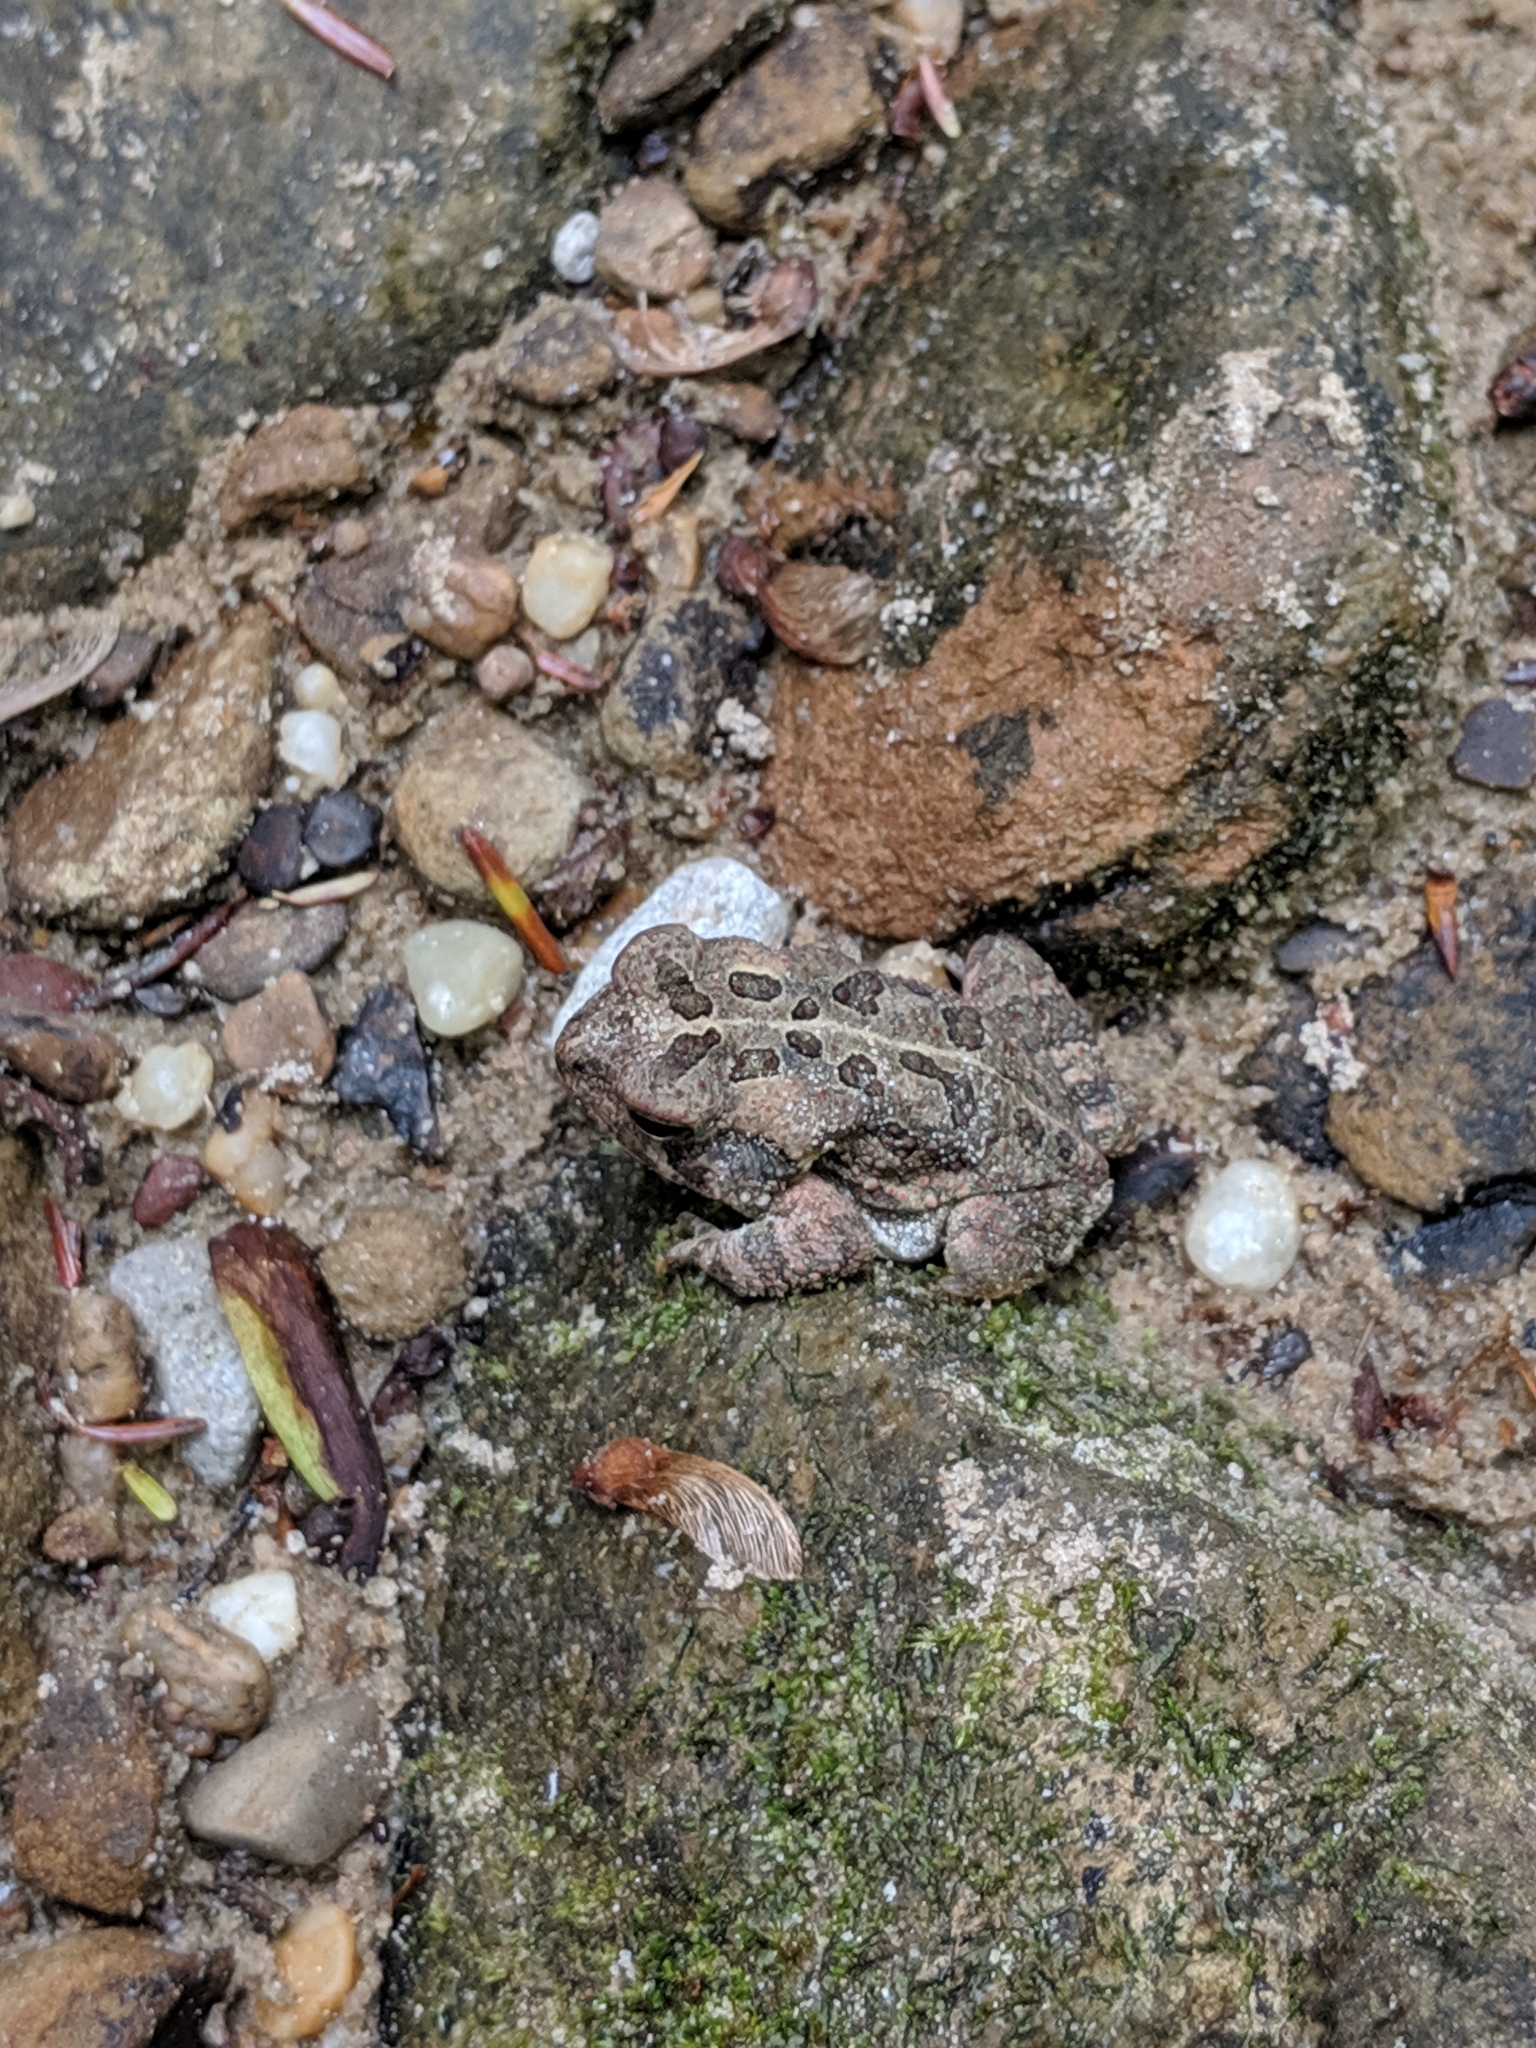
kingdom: Animalia
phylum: Chordata
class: Amphibia
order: Anura
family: Bufonidae
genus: Anaxyrus
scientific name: Anaxyrus fowleri
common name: Fowler's toad
